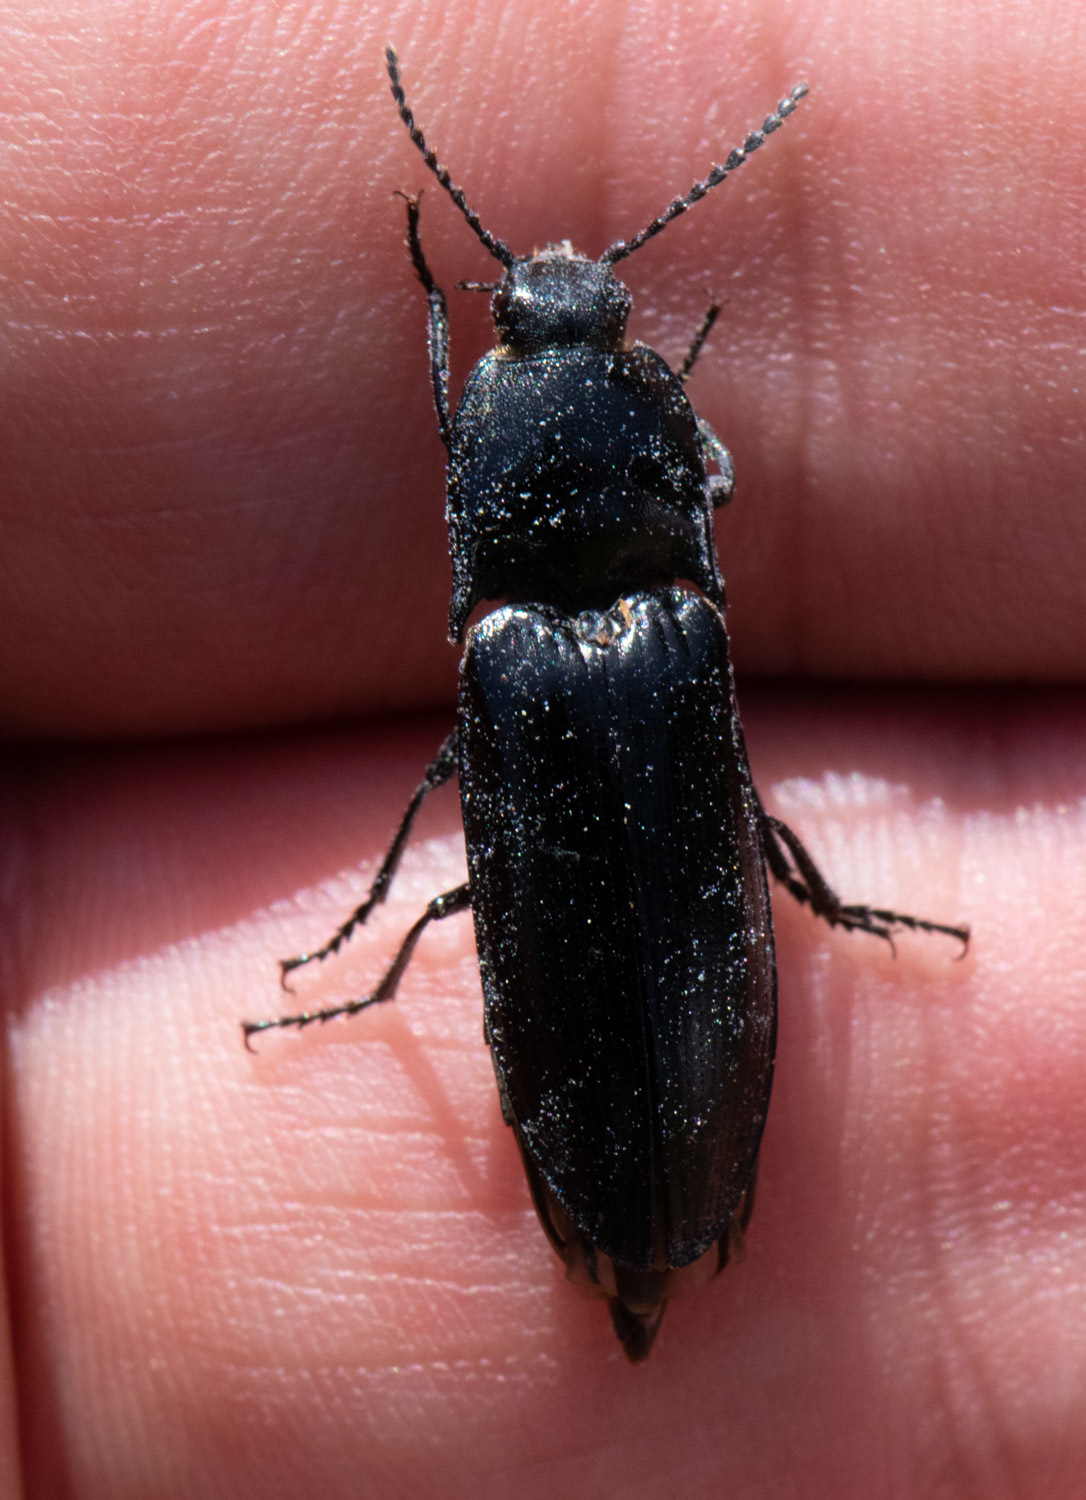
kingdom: Animalia
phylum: Arthropoda
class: Insecta
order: Coleoptera
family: Elateridae
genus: Melanactes
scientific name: Melanactes
